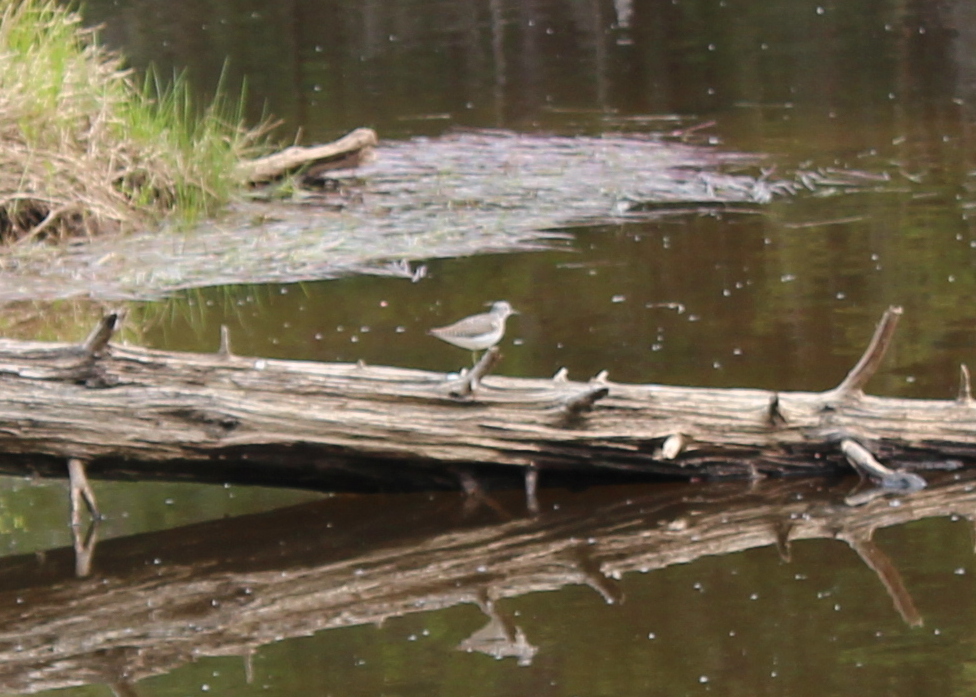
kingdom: Animalia
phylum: Chordata
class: Aves
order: Charadriiformes
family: Scolopacidae
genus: Tringa
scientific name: Tringa solitaria
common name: Solitary sandpiper
